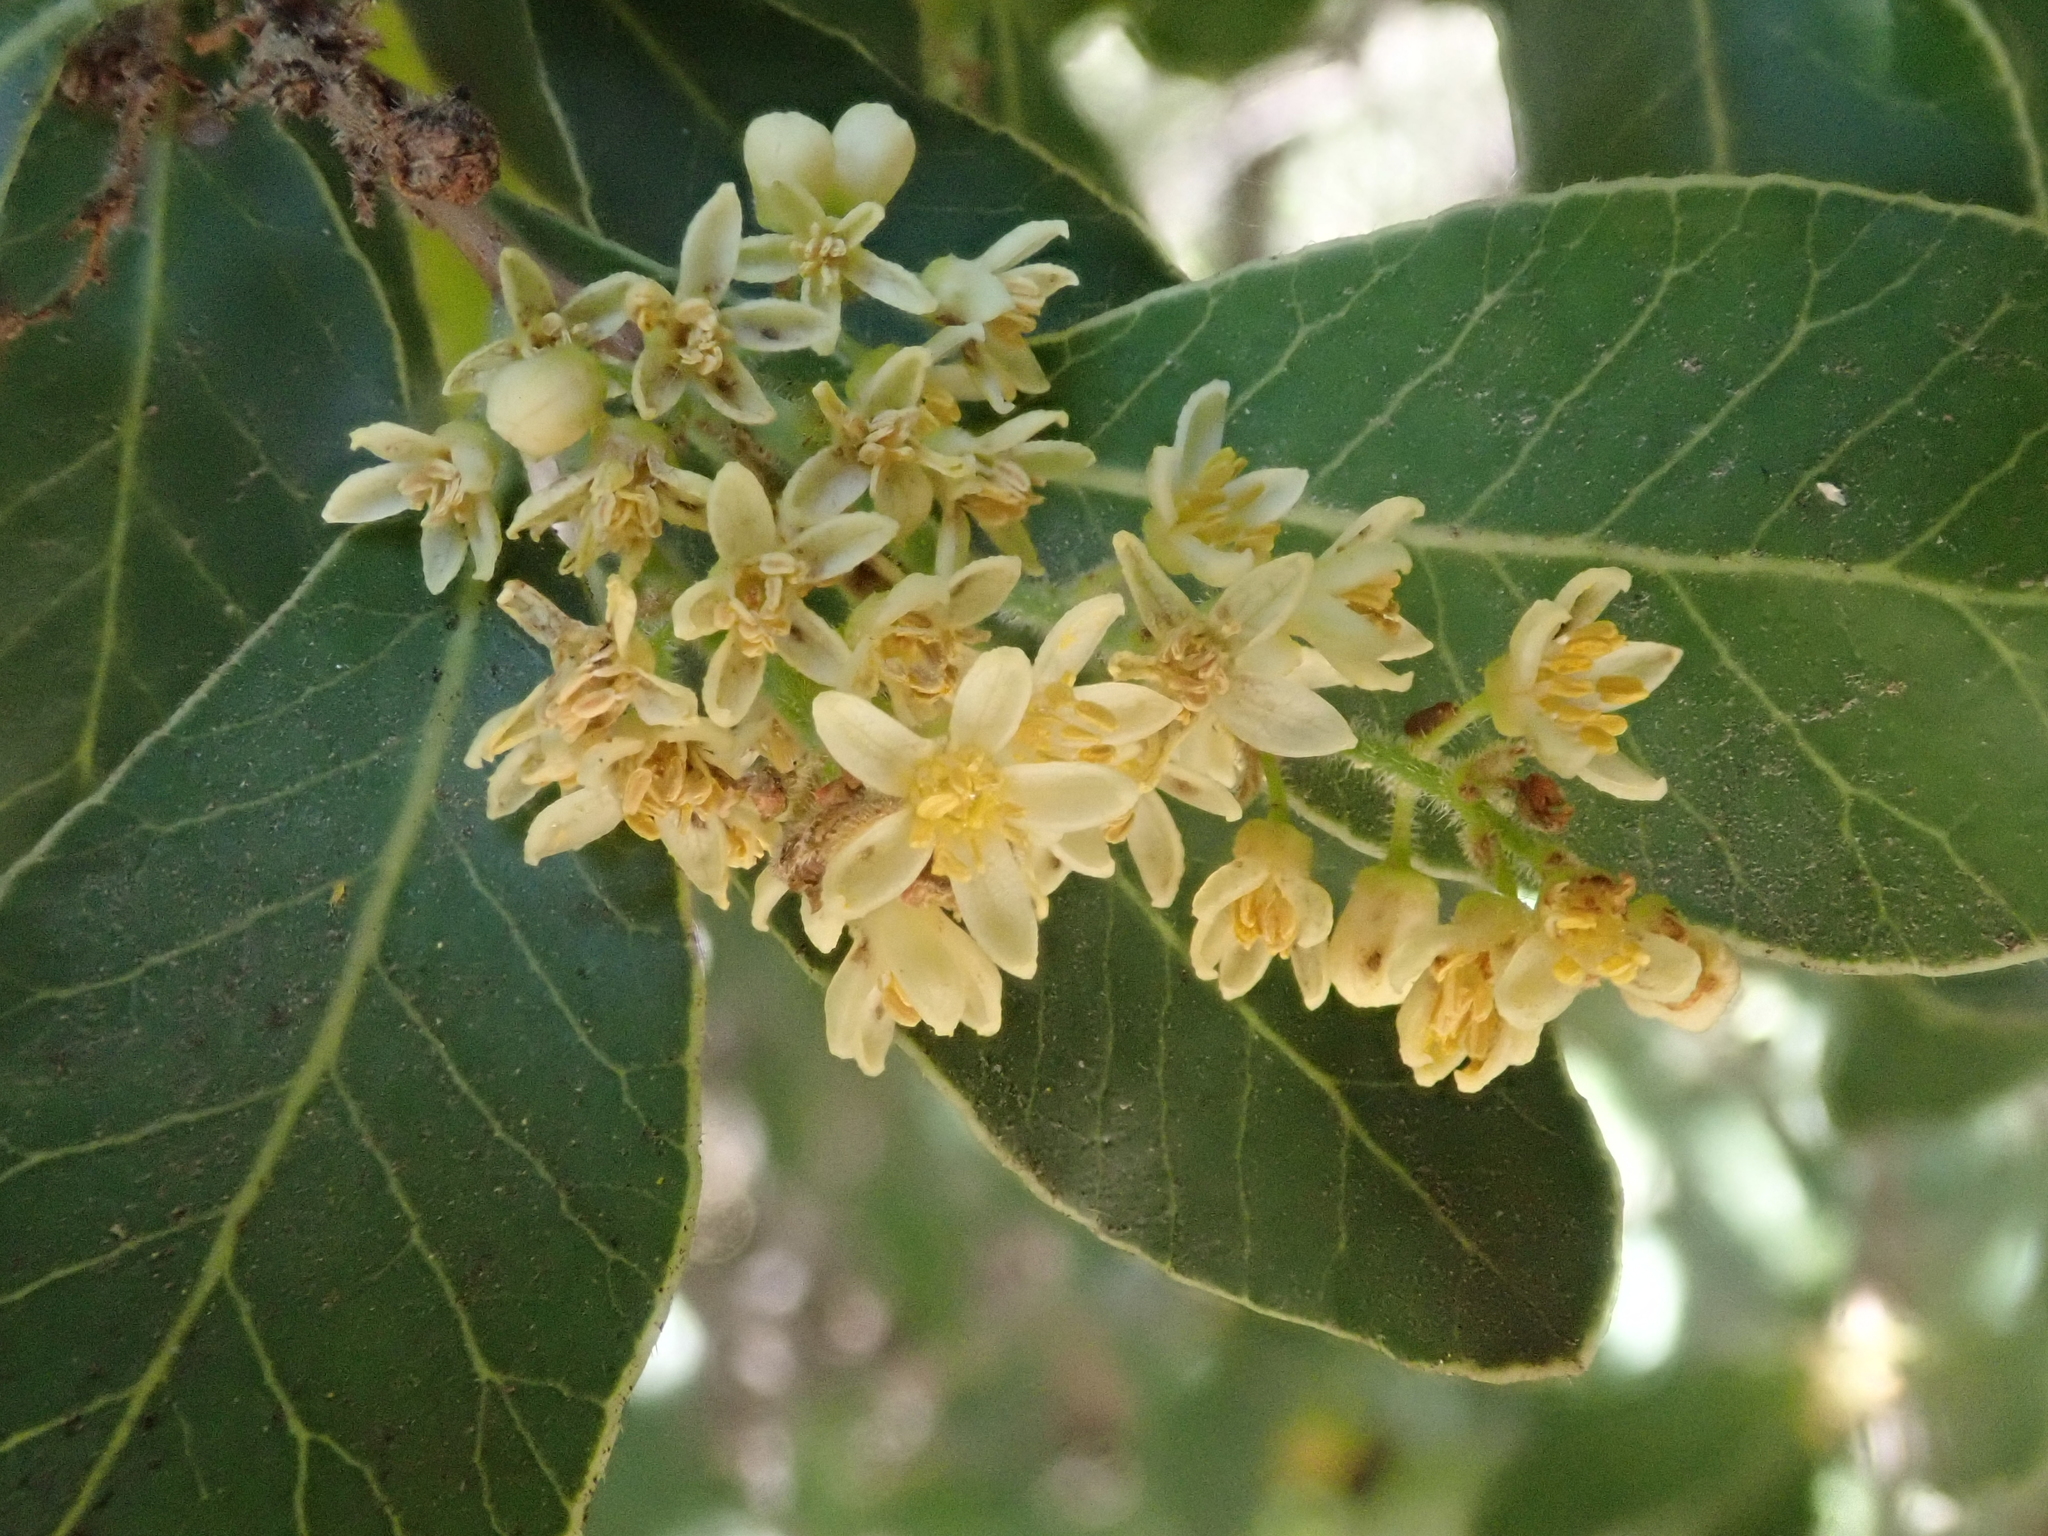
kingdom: Plantae
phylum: Tracheophyta
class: Magnoliopsida
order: Sapindales
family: Anacardiaceae
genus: Lithraea
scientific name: Lithraea caustica
